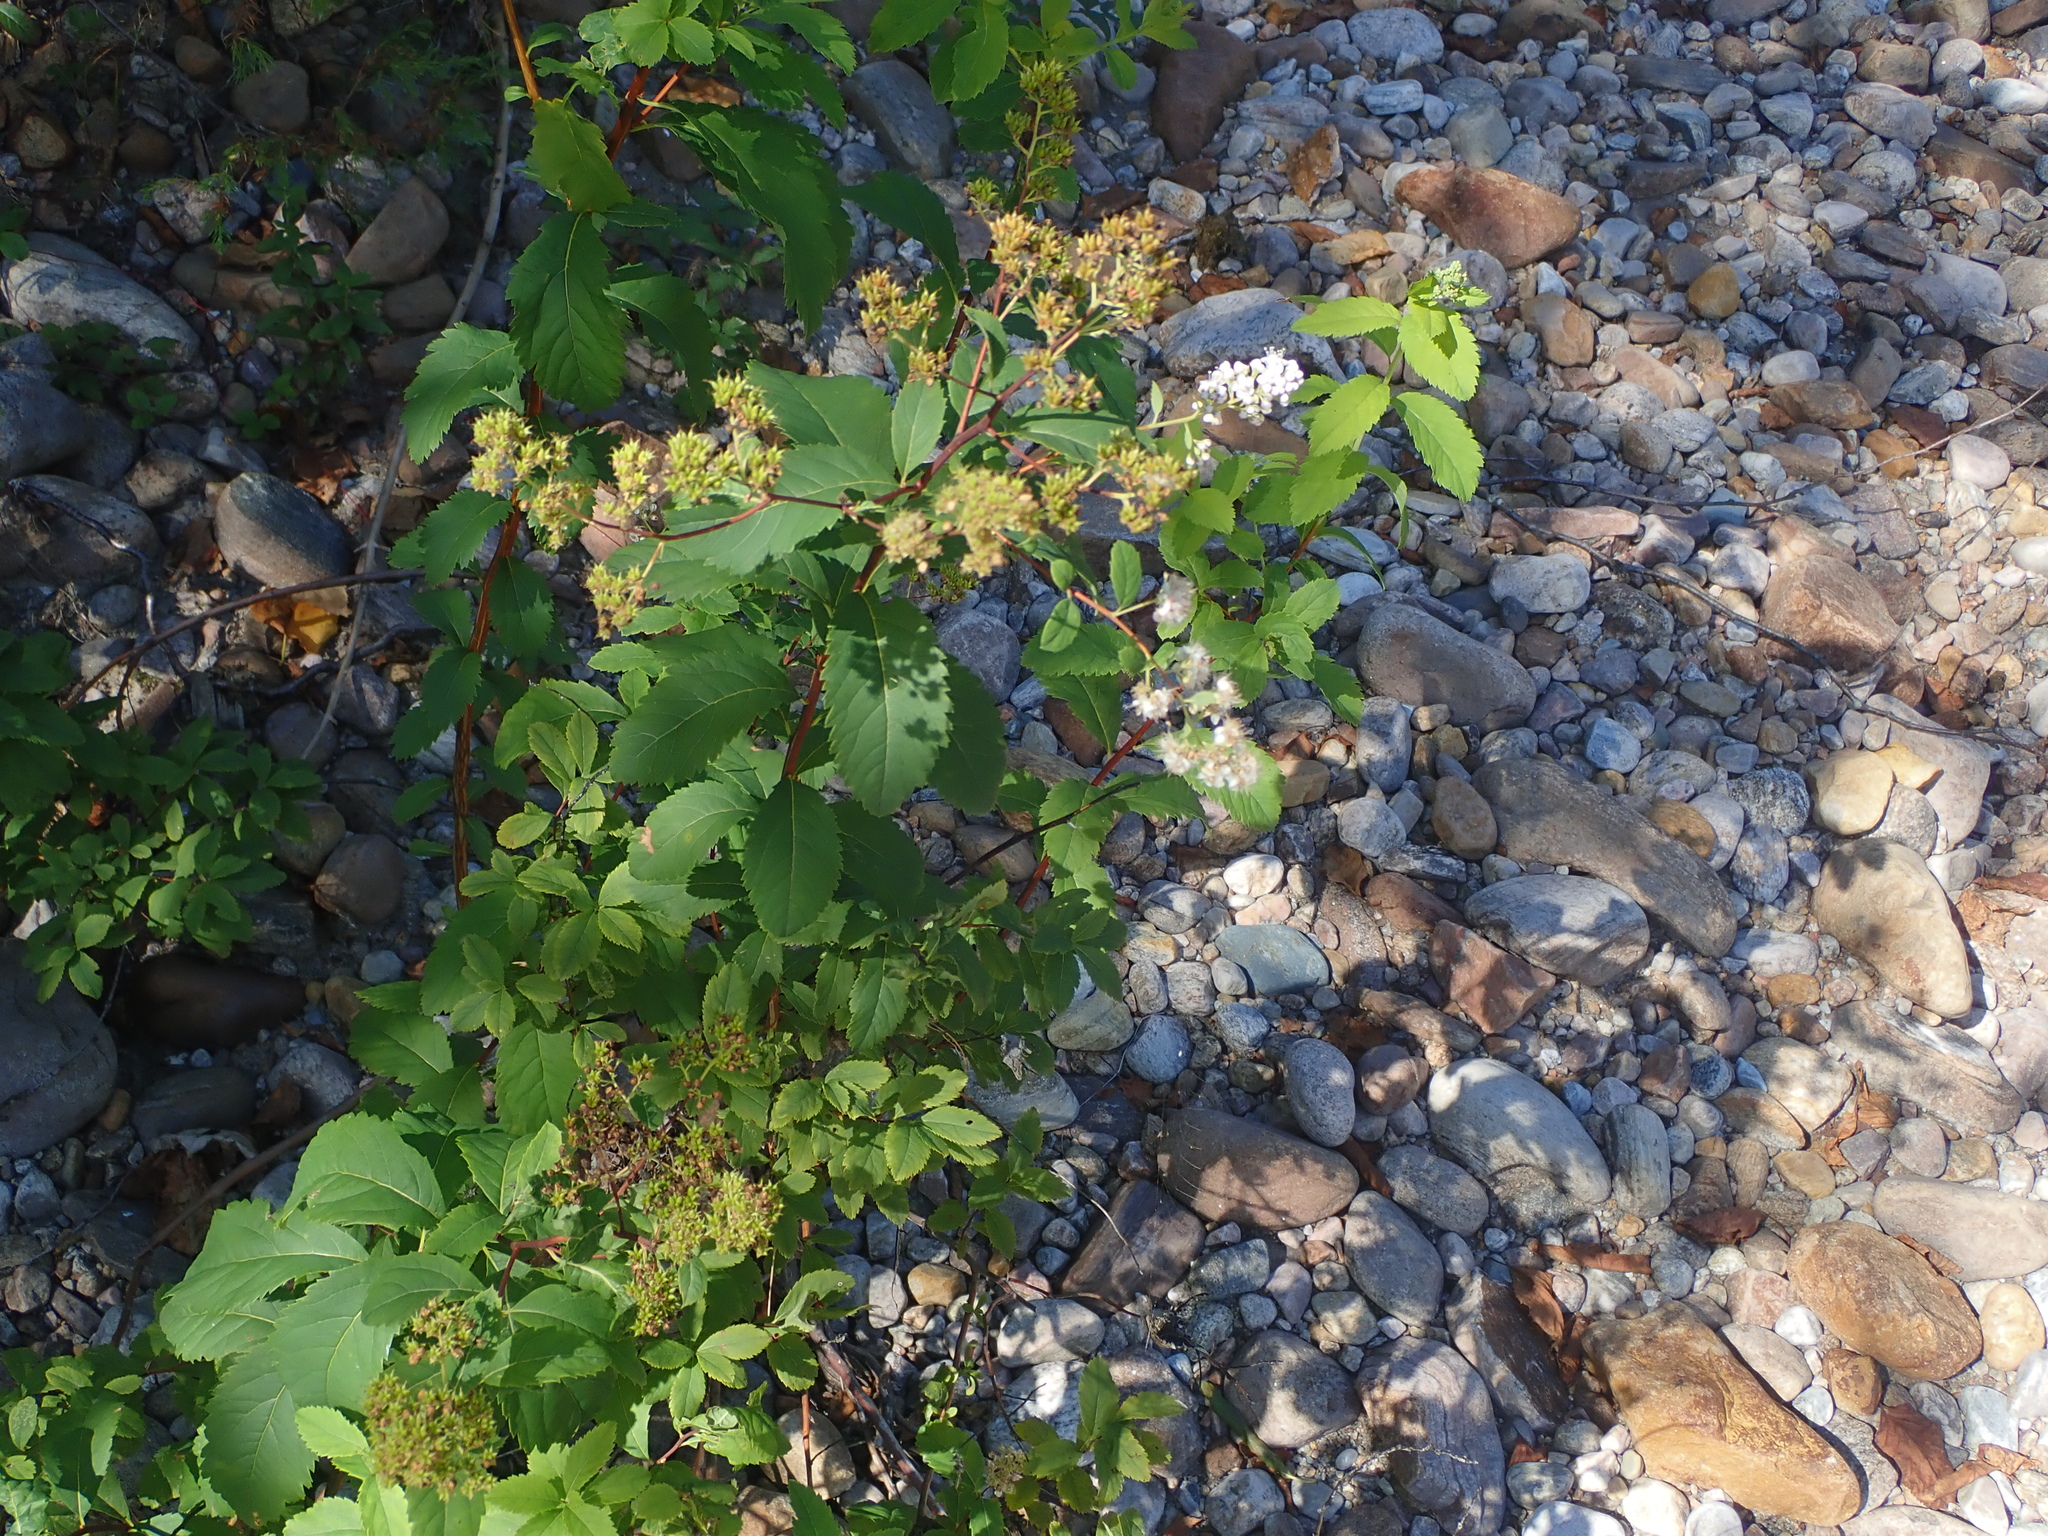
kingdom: Plantae
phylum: Tracheophyta
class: Magnoliopsida
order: Rosales
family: Rosaceae
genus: Spiraea
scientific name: Spiraea alba
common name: Pale bridewort
